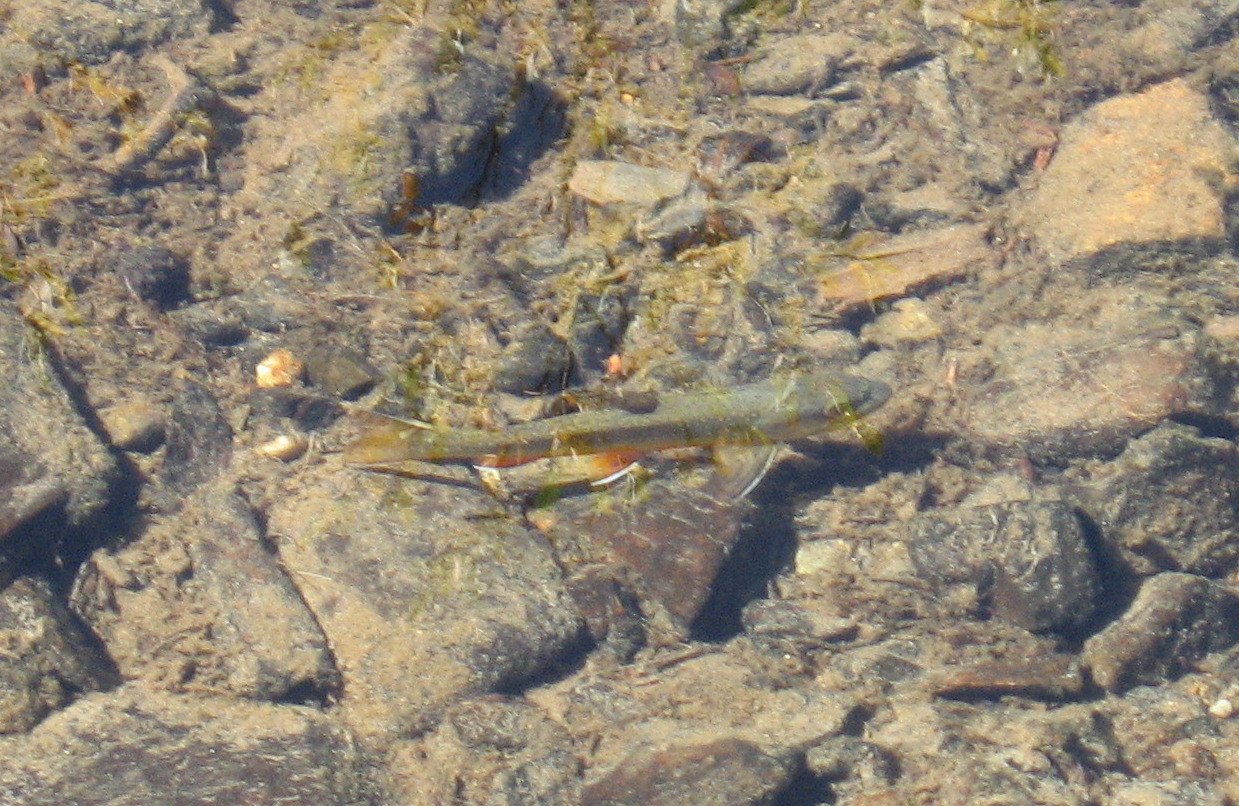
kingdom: Animalia
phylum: Chordata
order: Salmoniformes
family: Salmonidae
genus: Salvelinus
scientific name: Salvelinus fontinalis
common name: Brook trout
